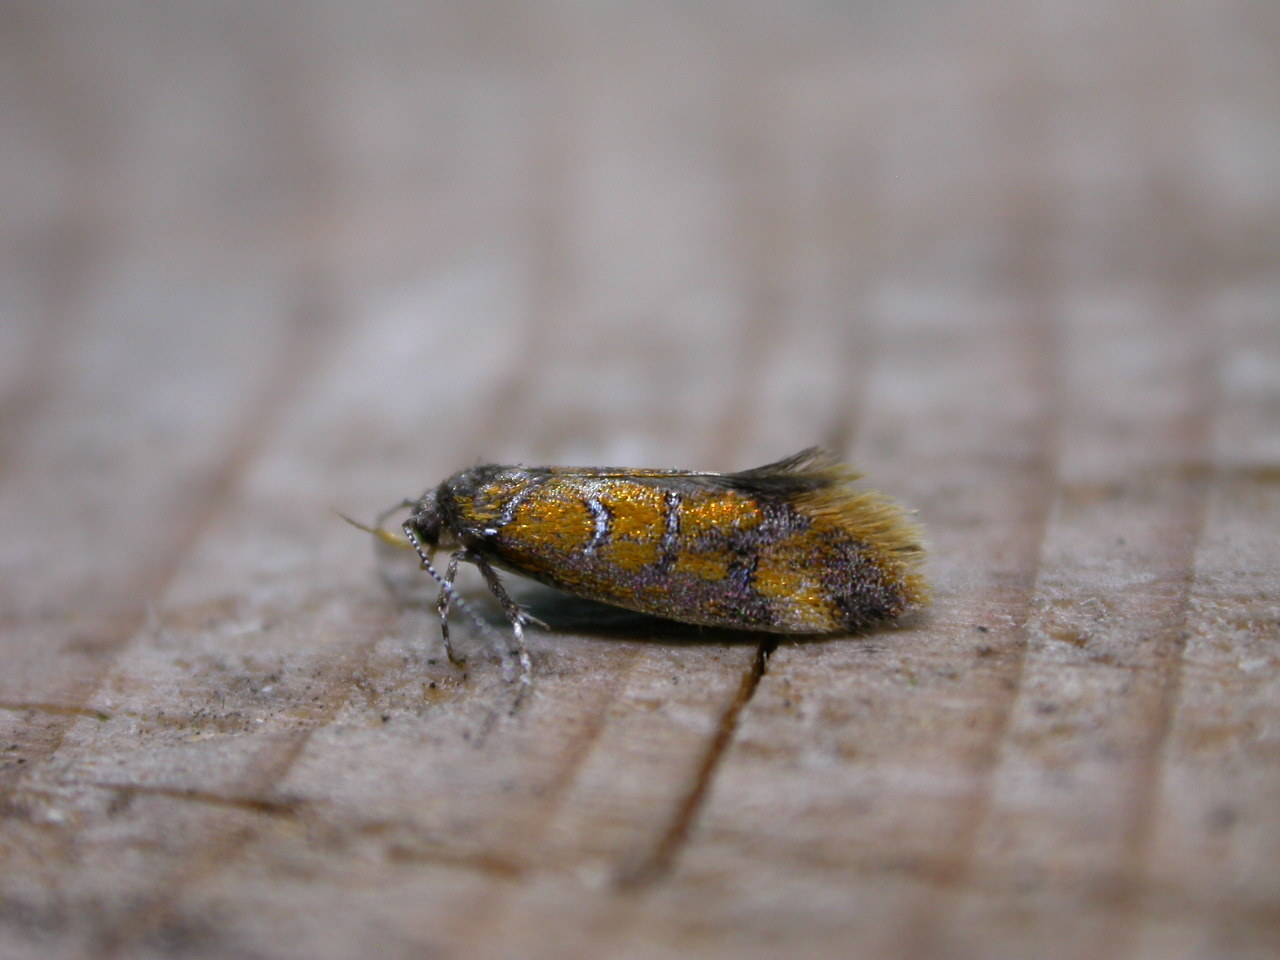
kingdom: Animalia
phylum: Arthropoda
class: Insecta
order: Lepidoptera
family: Oecophoridae
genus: Schiffermuelleria
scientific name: Schiffermuelleria procerella
